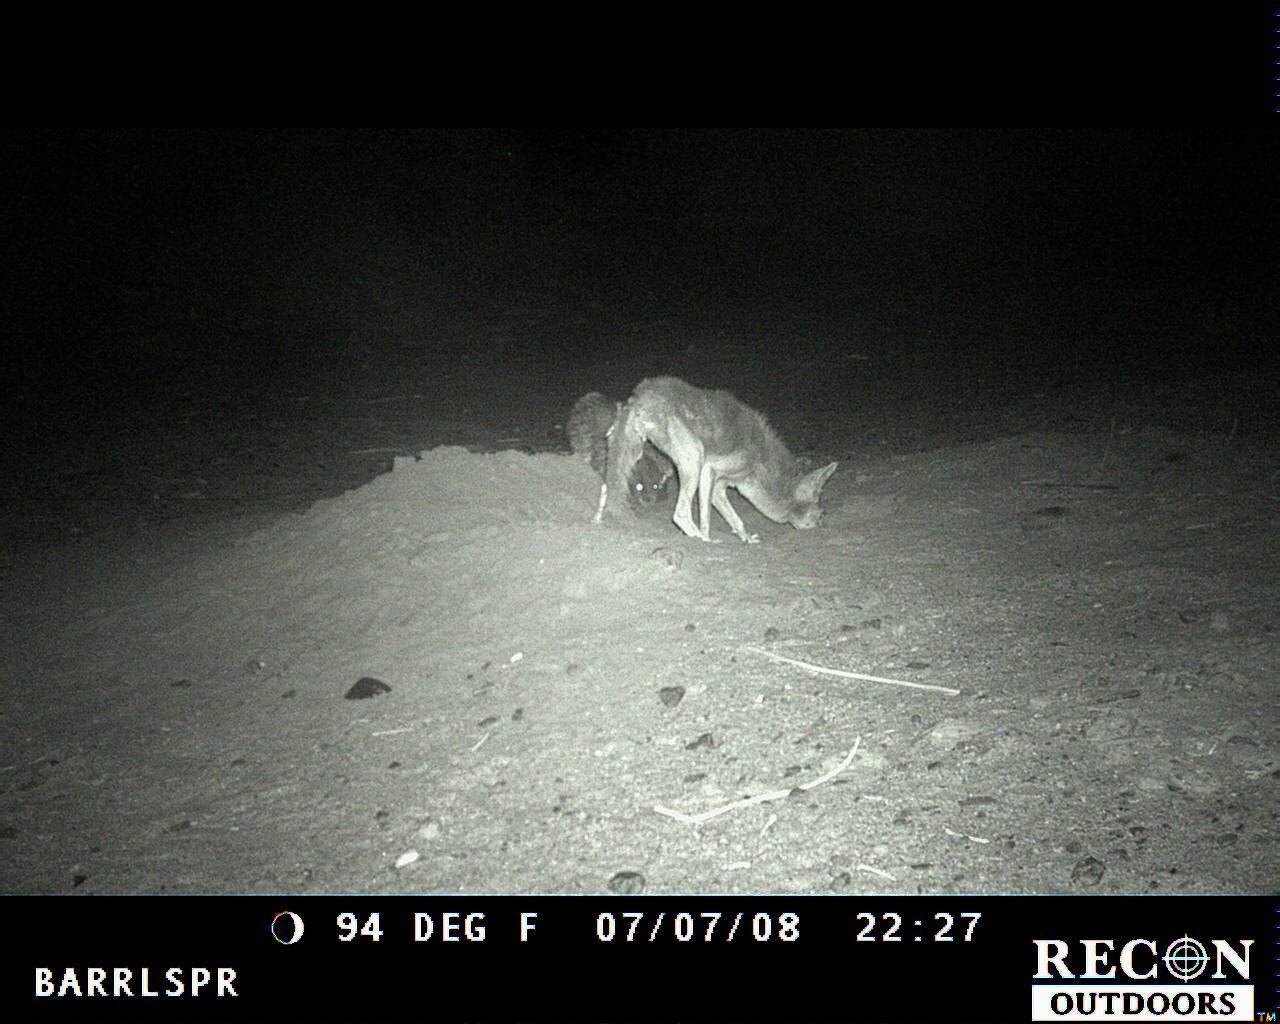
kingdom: Animalia
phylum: Chordata
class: Mammalia
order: Carnivora
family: Canidae
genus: Canis
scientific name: Canis latrans
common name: Coyote
